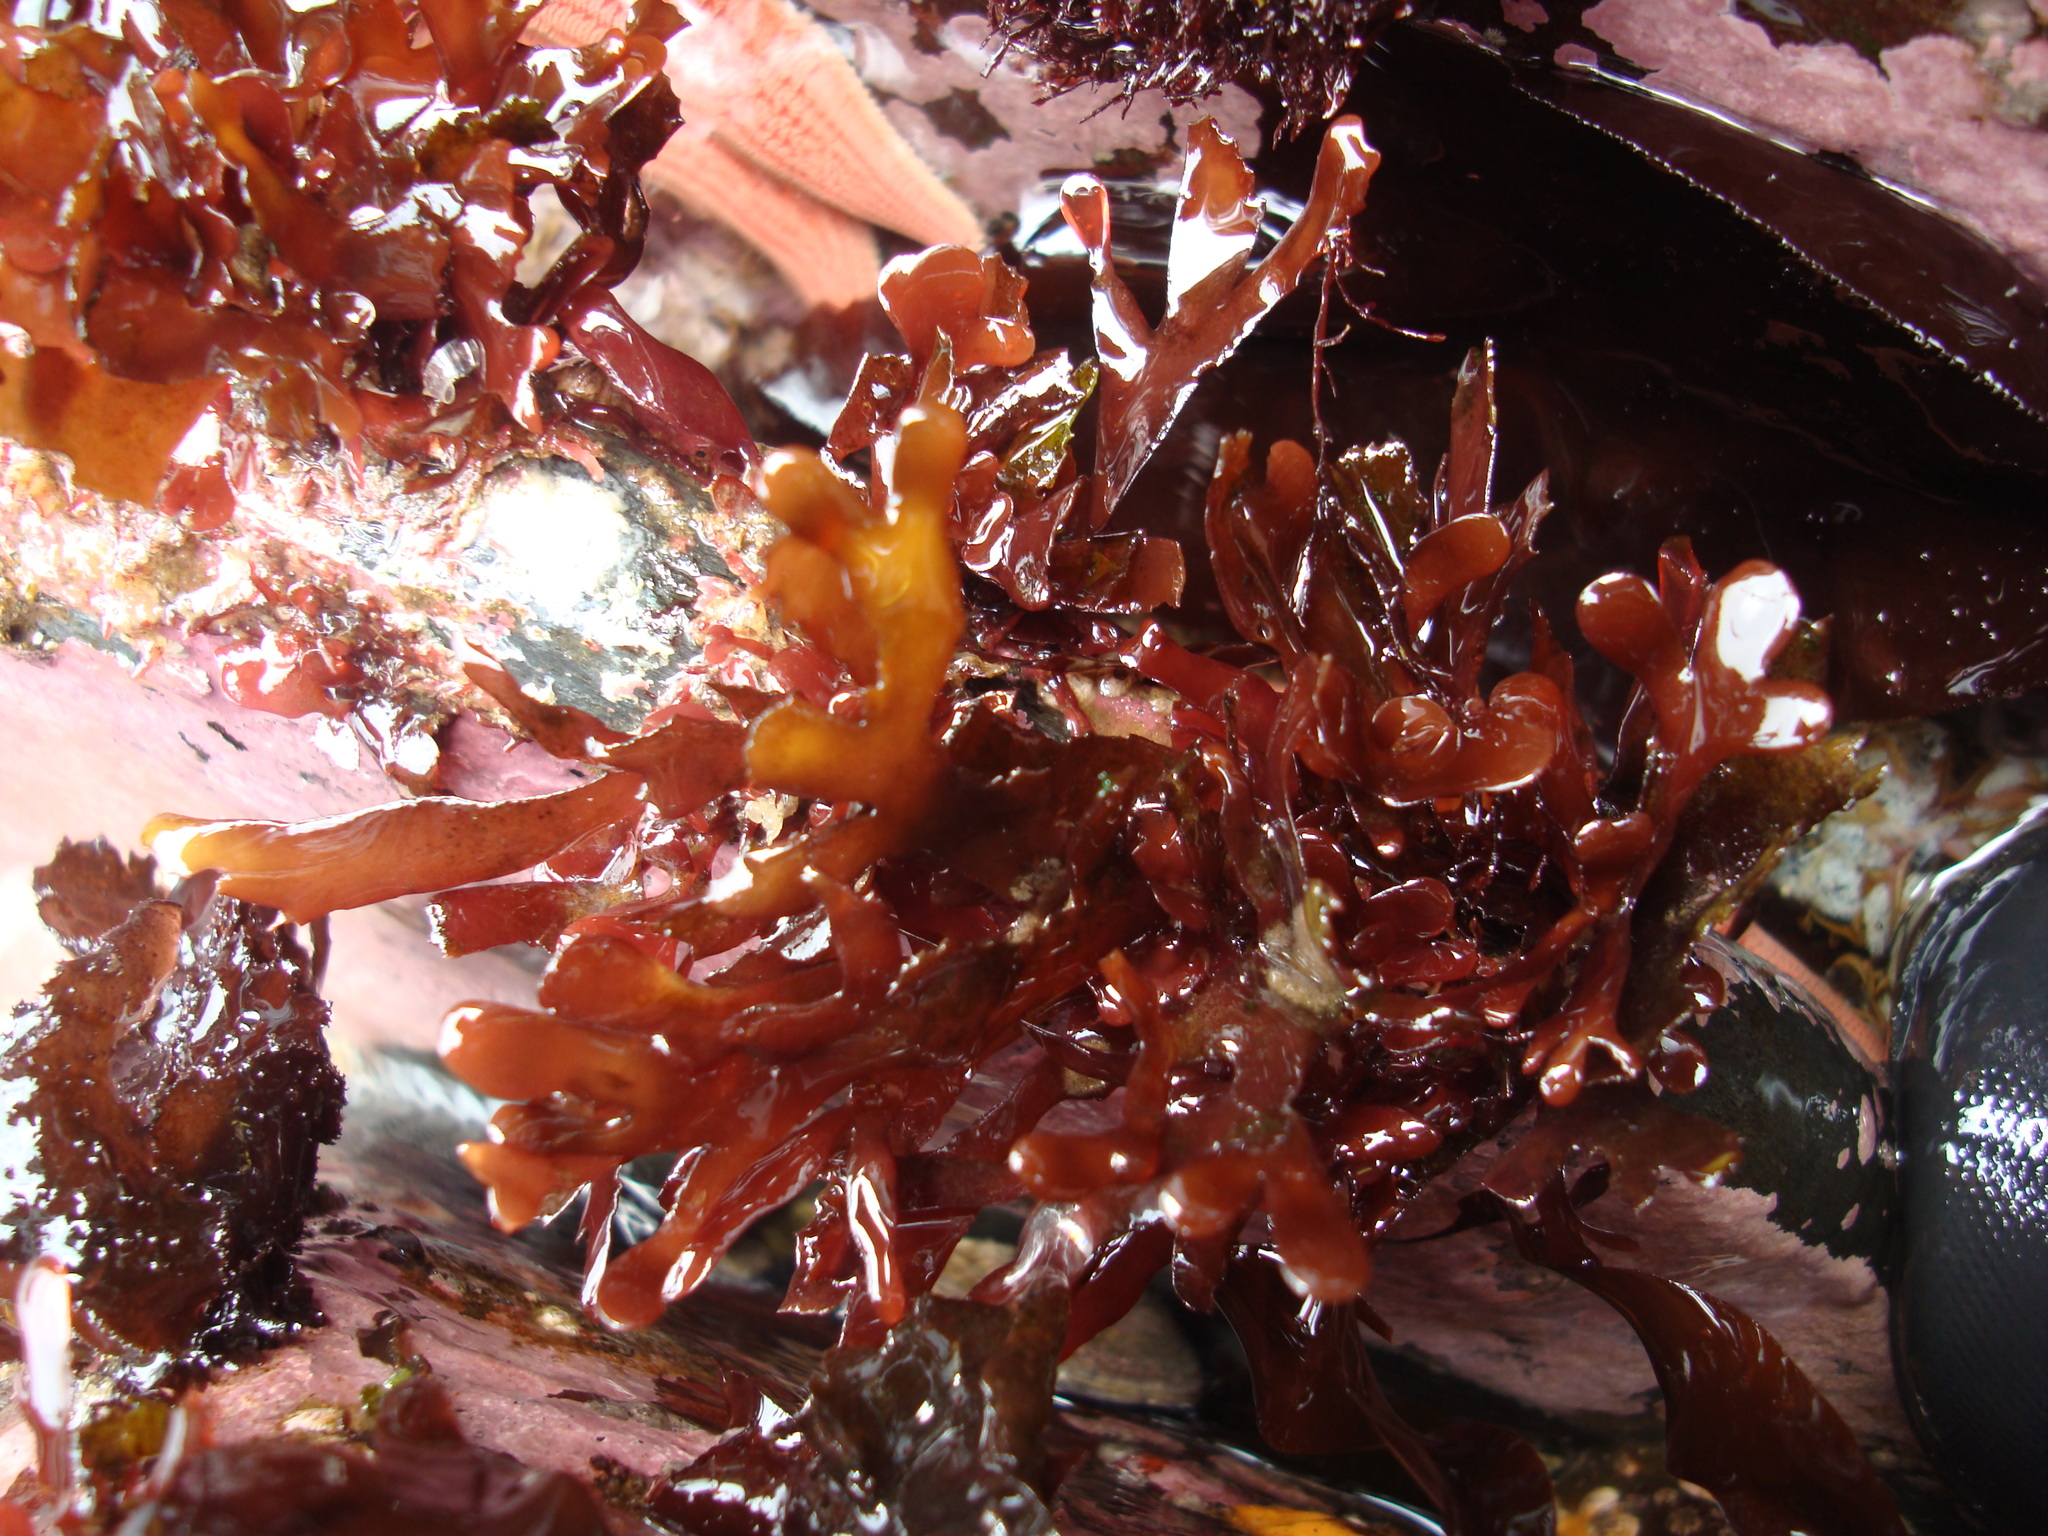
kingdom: Plantae
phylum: Rhodophyta
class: Florideophyceae
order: Rhodymeniales
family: Rhodymeniaceae
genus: Rhodymenia
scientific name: Rhodymenia skottsbergi
